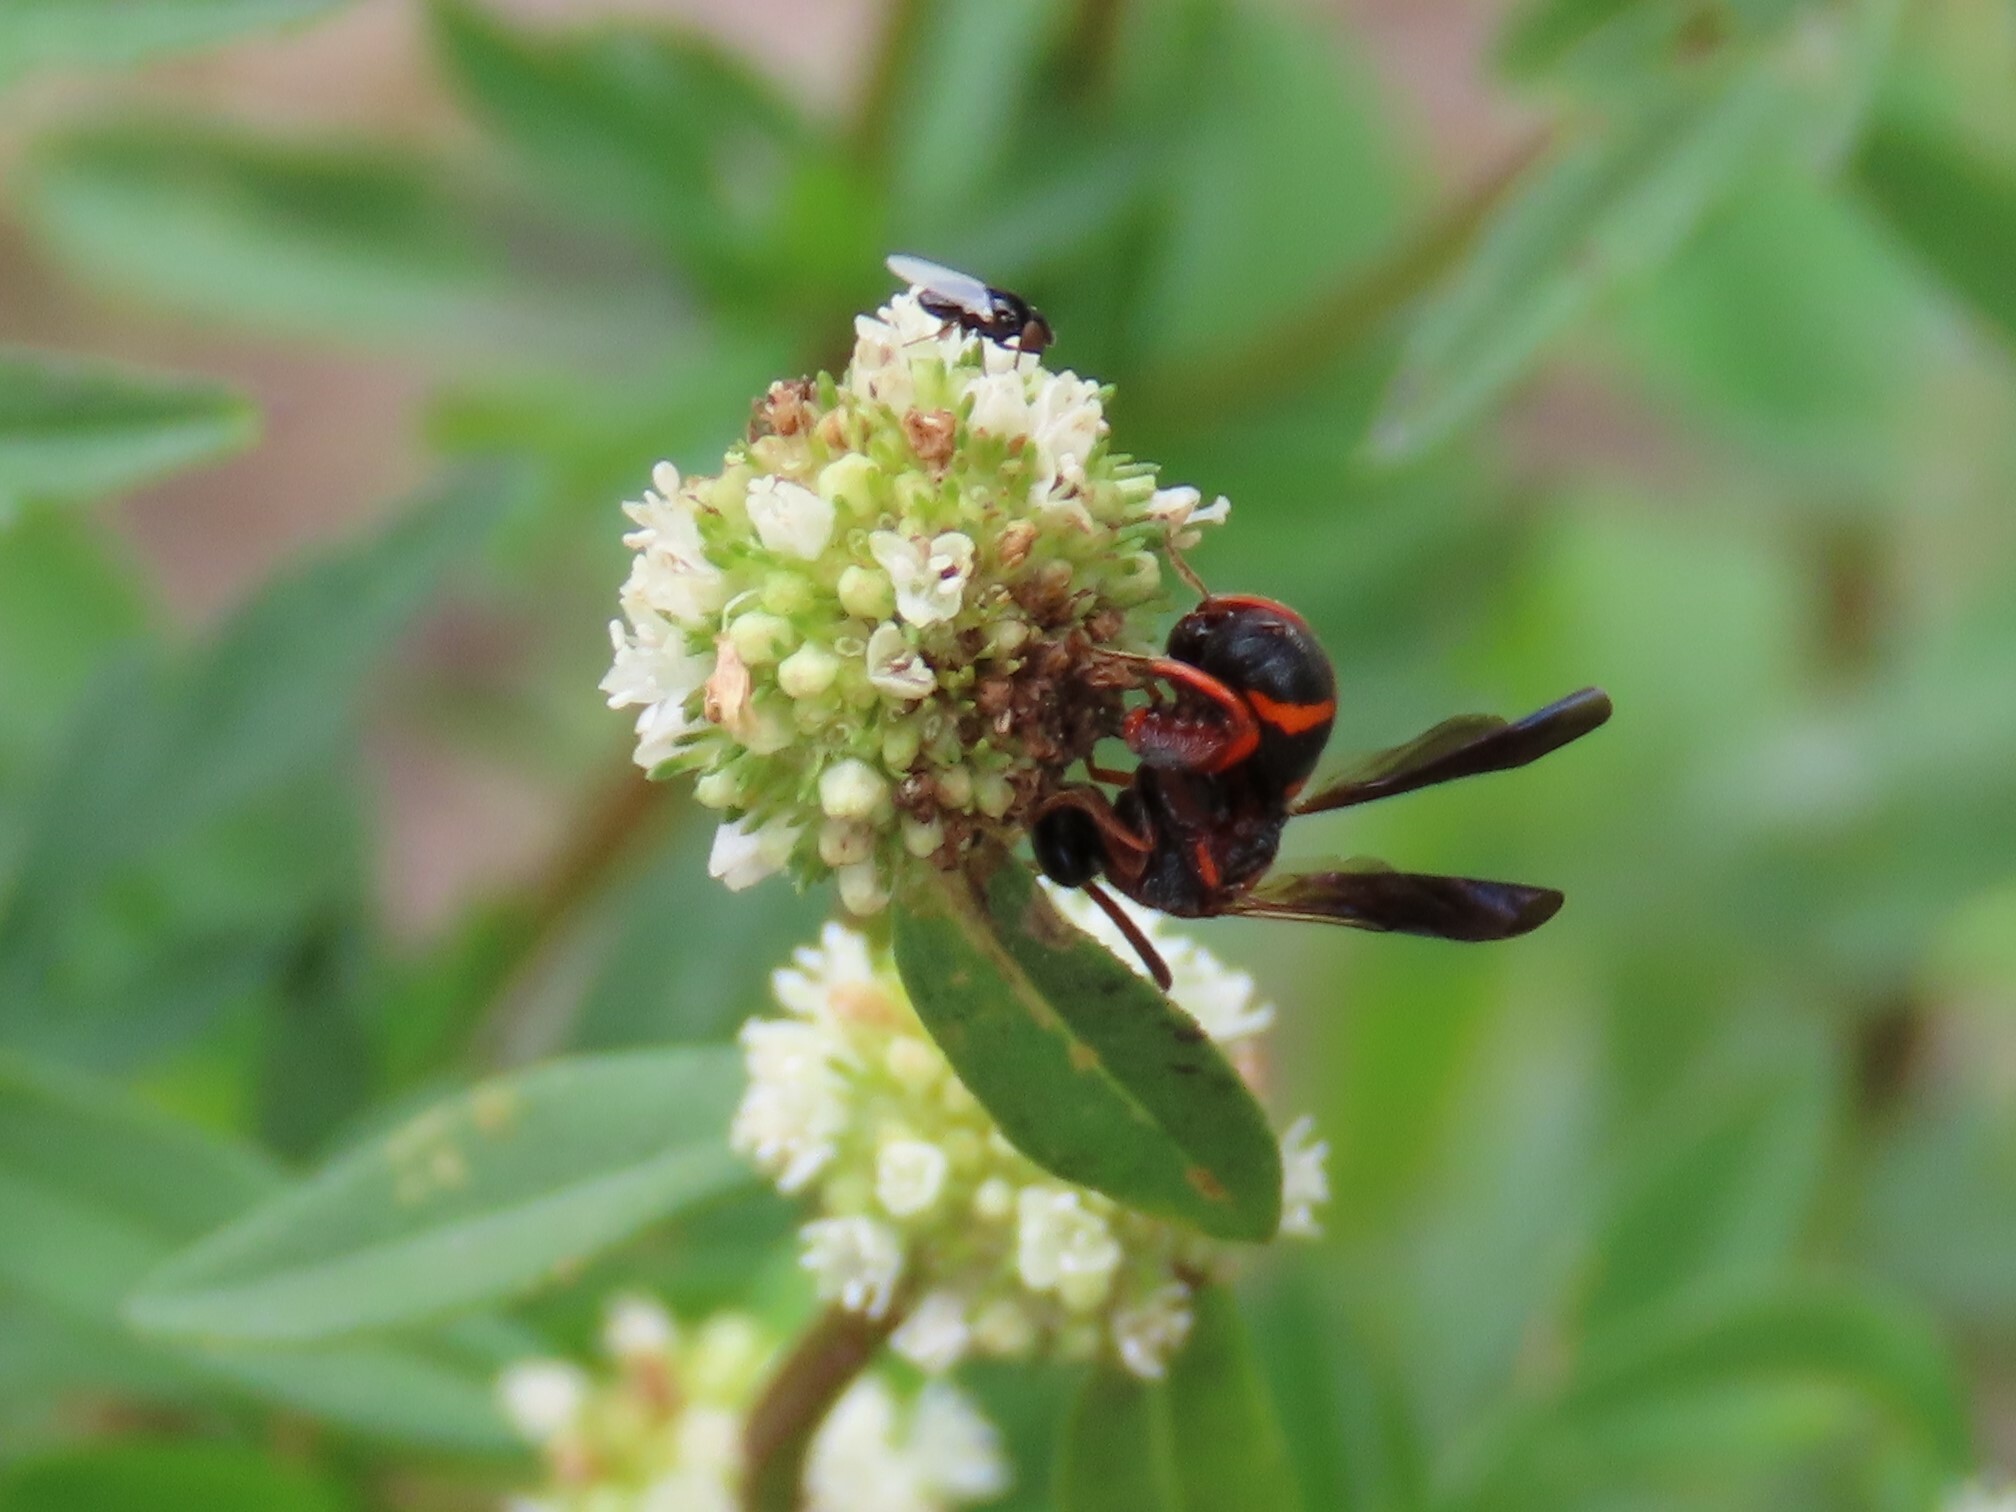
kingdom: Animalia
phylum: Arthropoda
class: Insecta
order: Hymenoptera
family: Leucospidae
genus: Leucospis
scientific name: Leucospis slossonae
